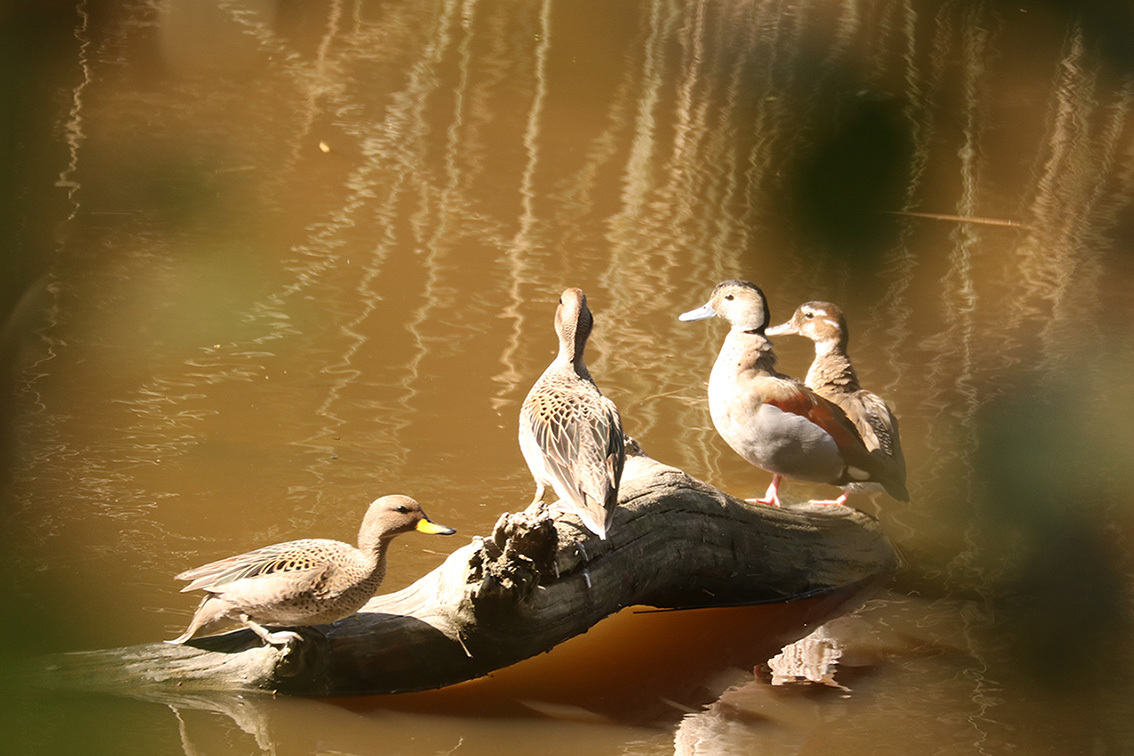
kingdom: Animalia
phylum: Chordata
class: Aves
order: Anseriformes
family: Anatidae
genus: Callonetta
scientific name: Callonetta leucophrys
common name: Ringed teal
